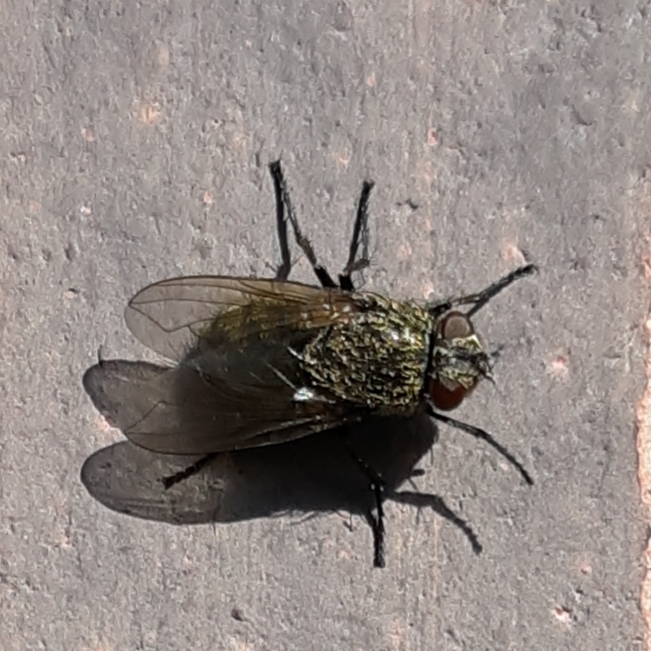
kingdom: Animalia
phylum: Arthropoda
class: Insecta
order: Diptera
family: Polleniidae
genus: Pollenia
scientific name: Pollenia
